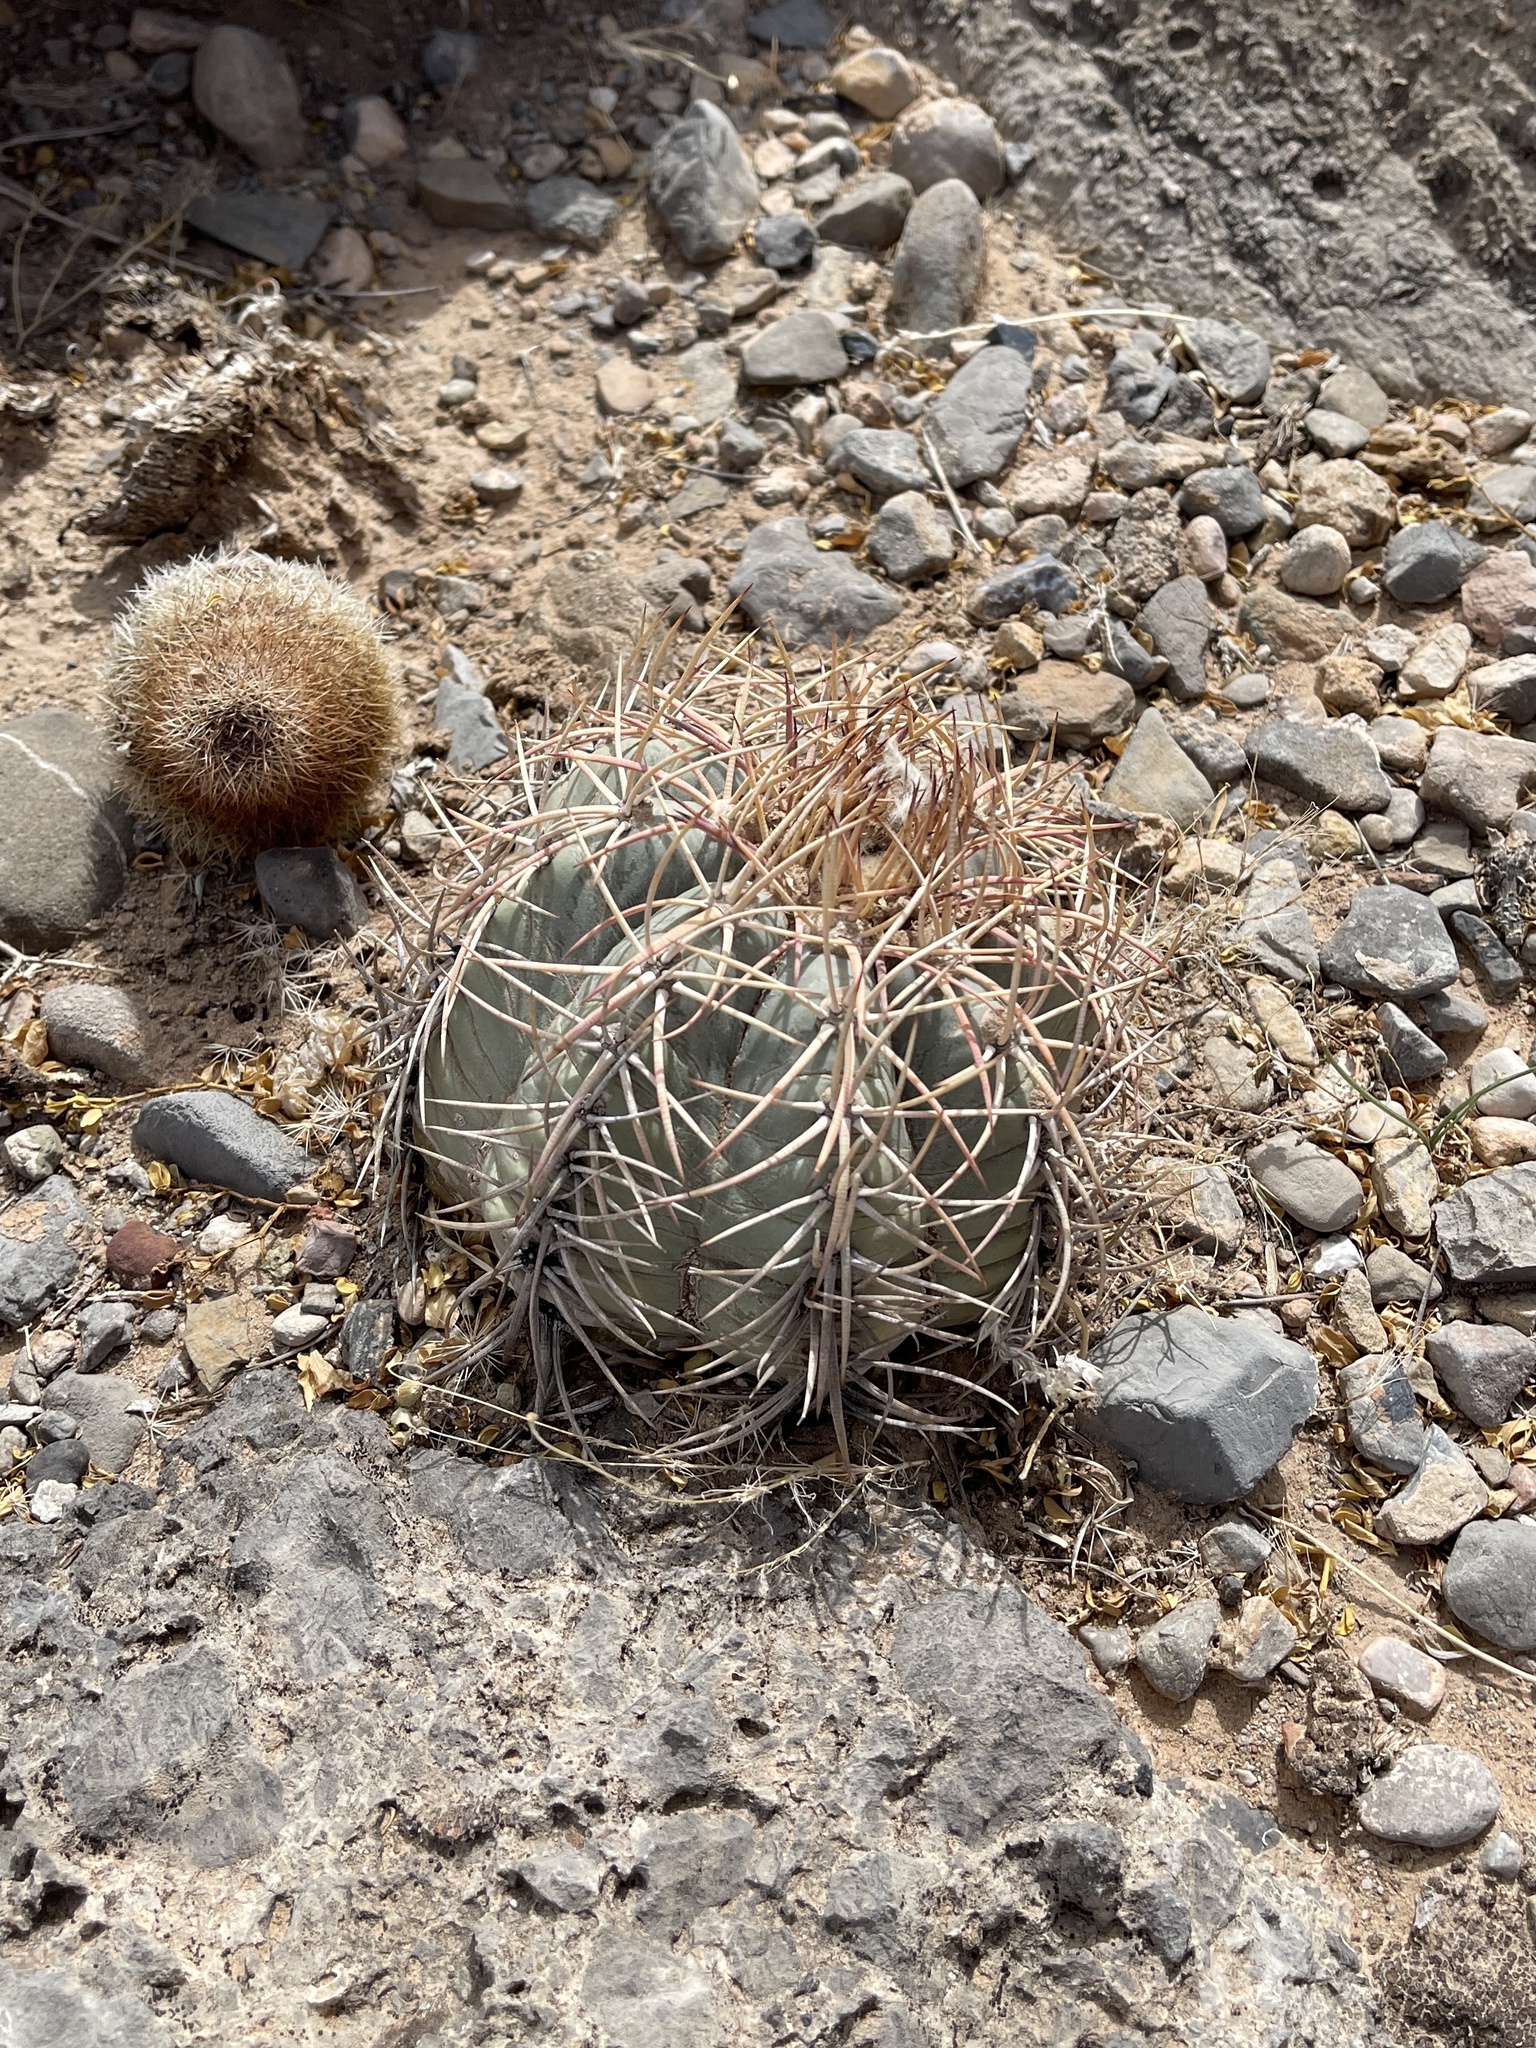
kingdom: Plantae
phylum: Tracheophyta
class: Magnoliopsida
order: Caryophyllales
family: Cactaceae
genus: Echinocactus
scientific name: Echinocactus horizonthalonius
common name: Devilshead
